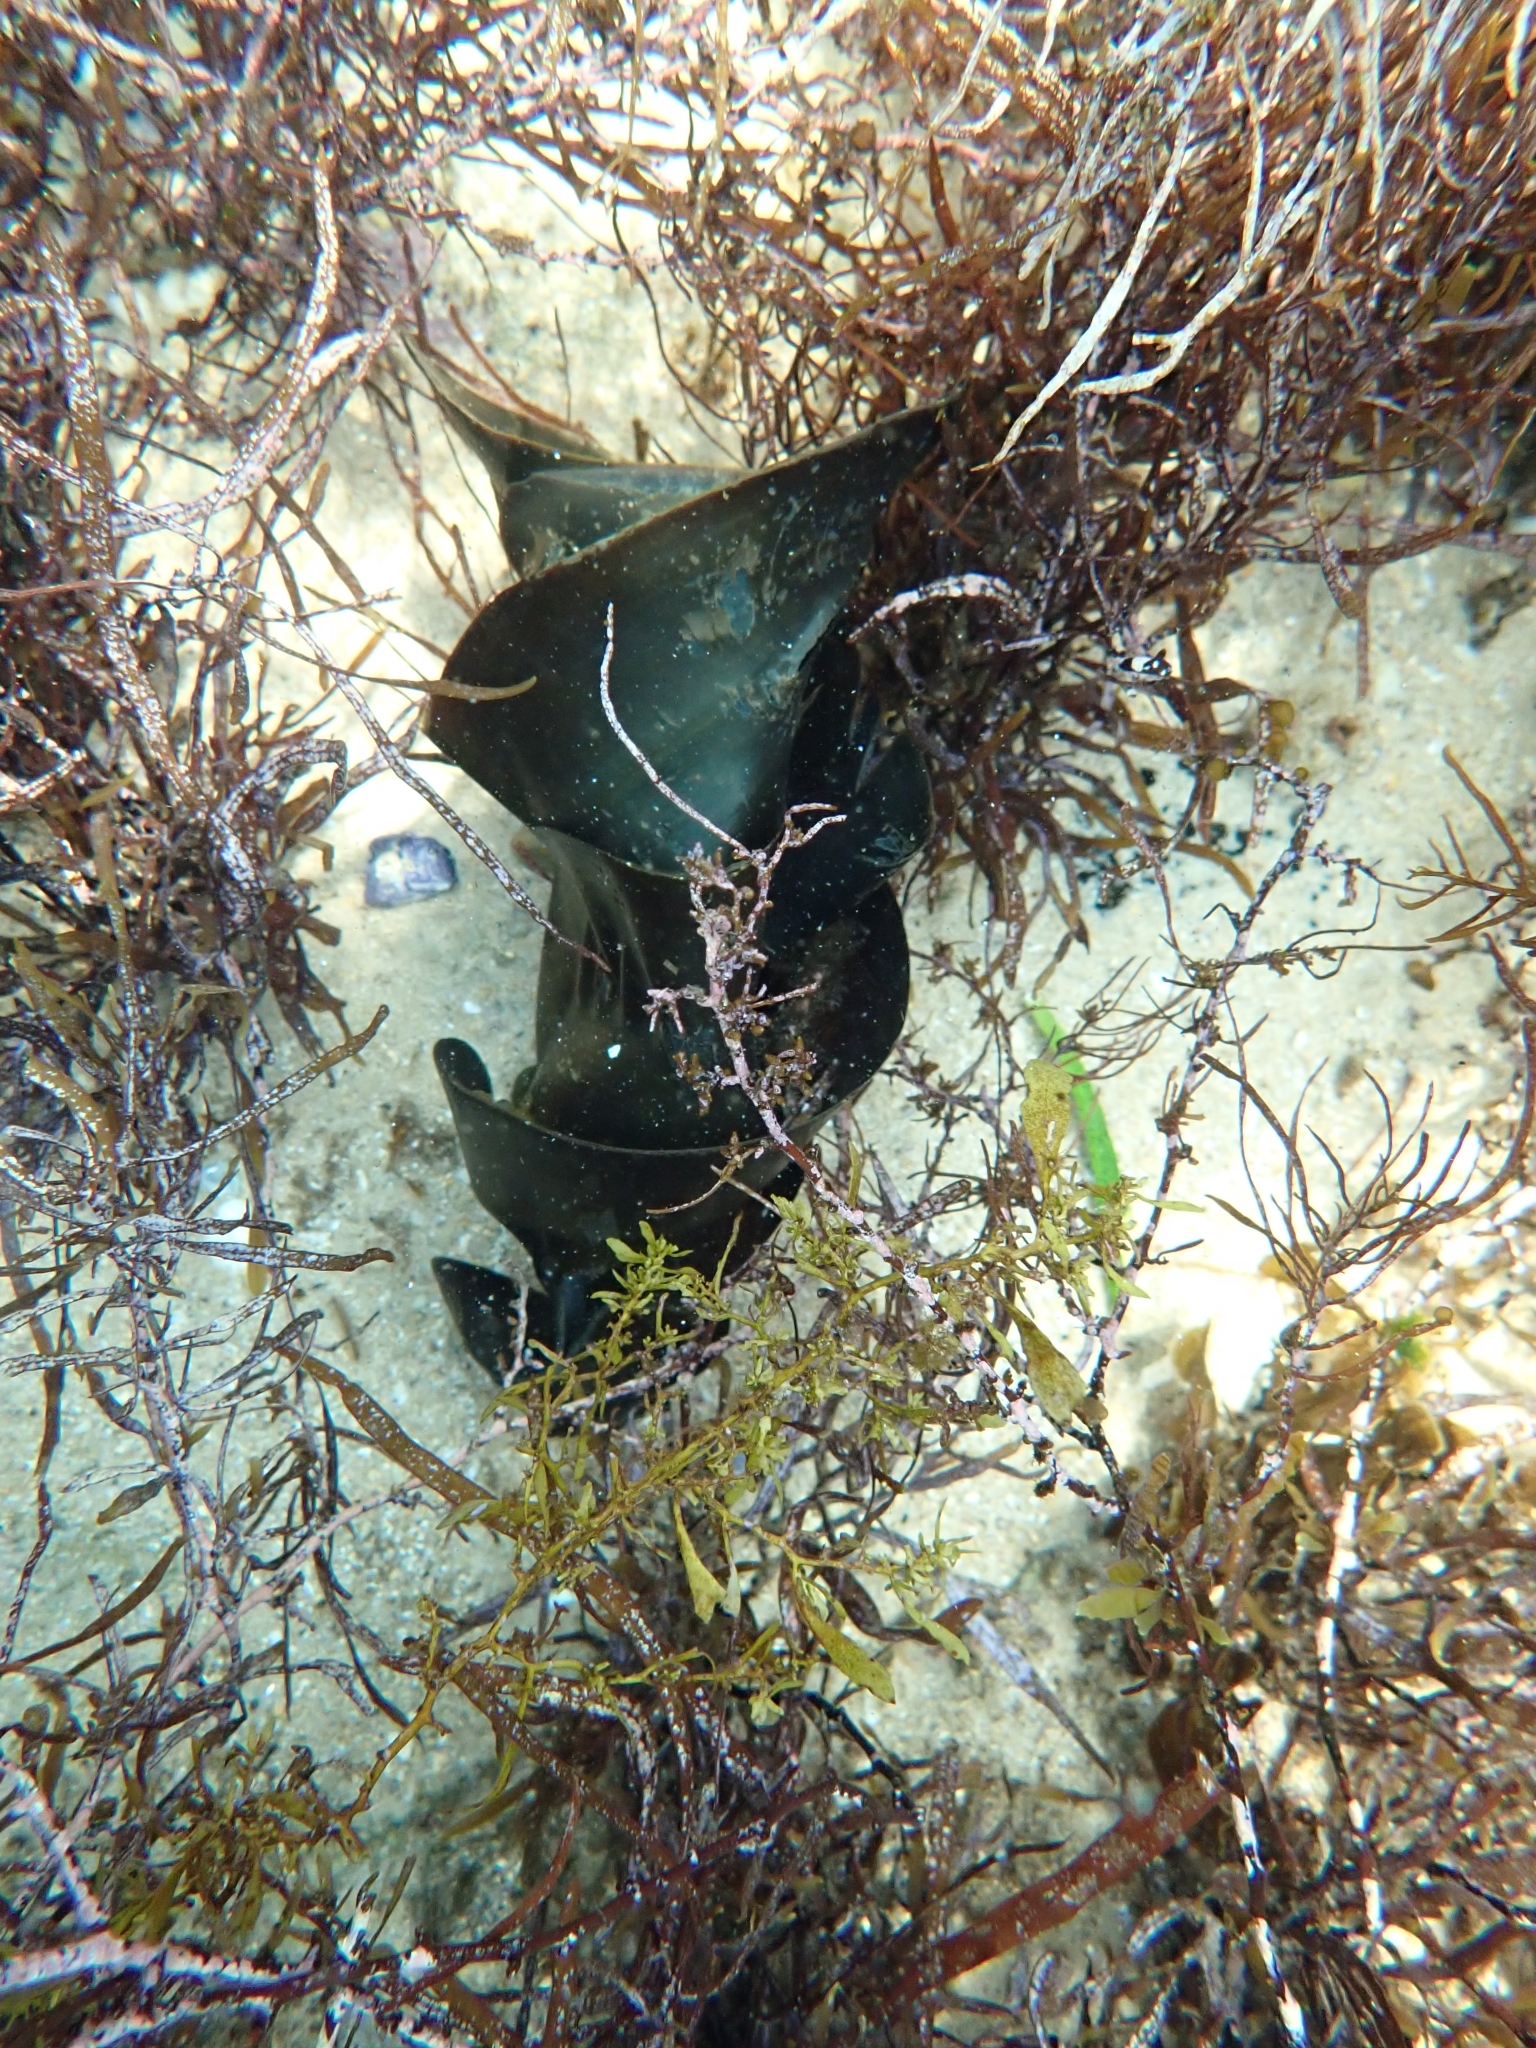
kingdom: Animalia
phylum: Chordata
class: Elasmobranchii
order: Heterodontiformes
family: Heterodontidae
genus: Heterodontus
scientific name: Heterodontus portusjacksoni
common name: Port jackson shark
